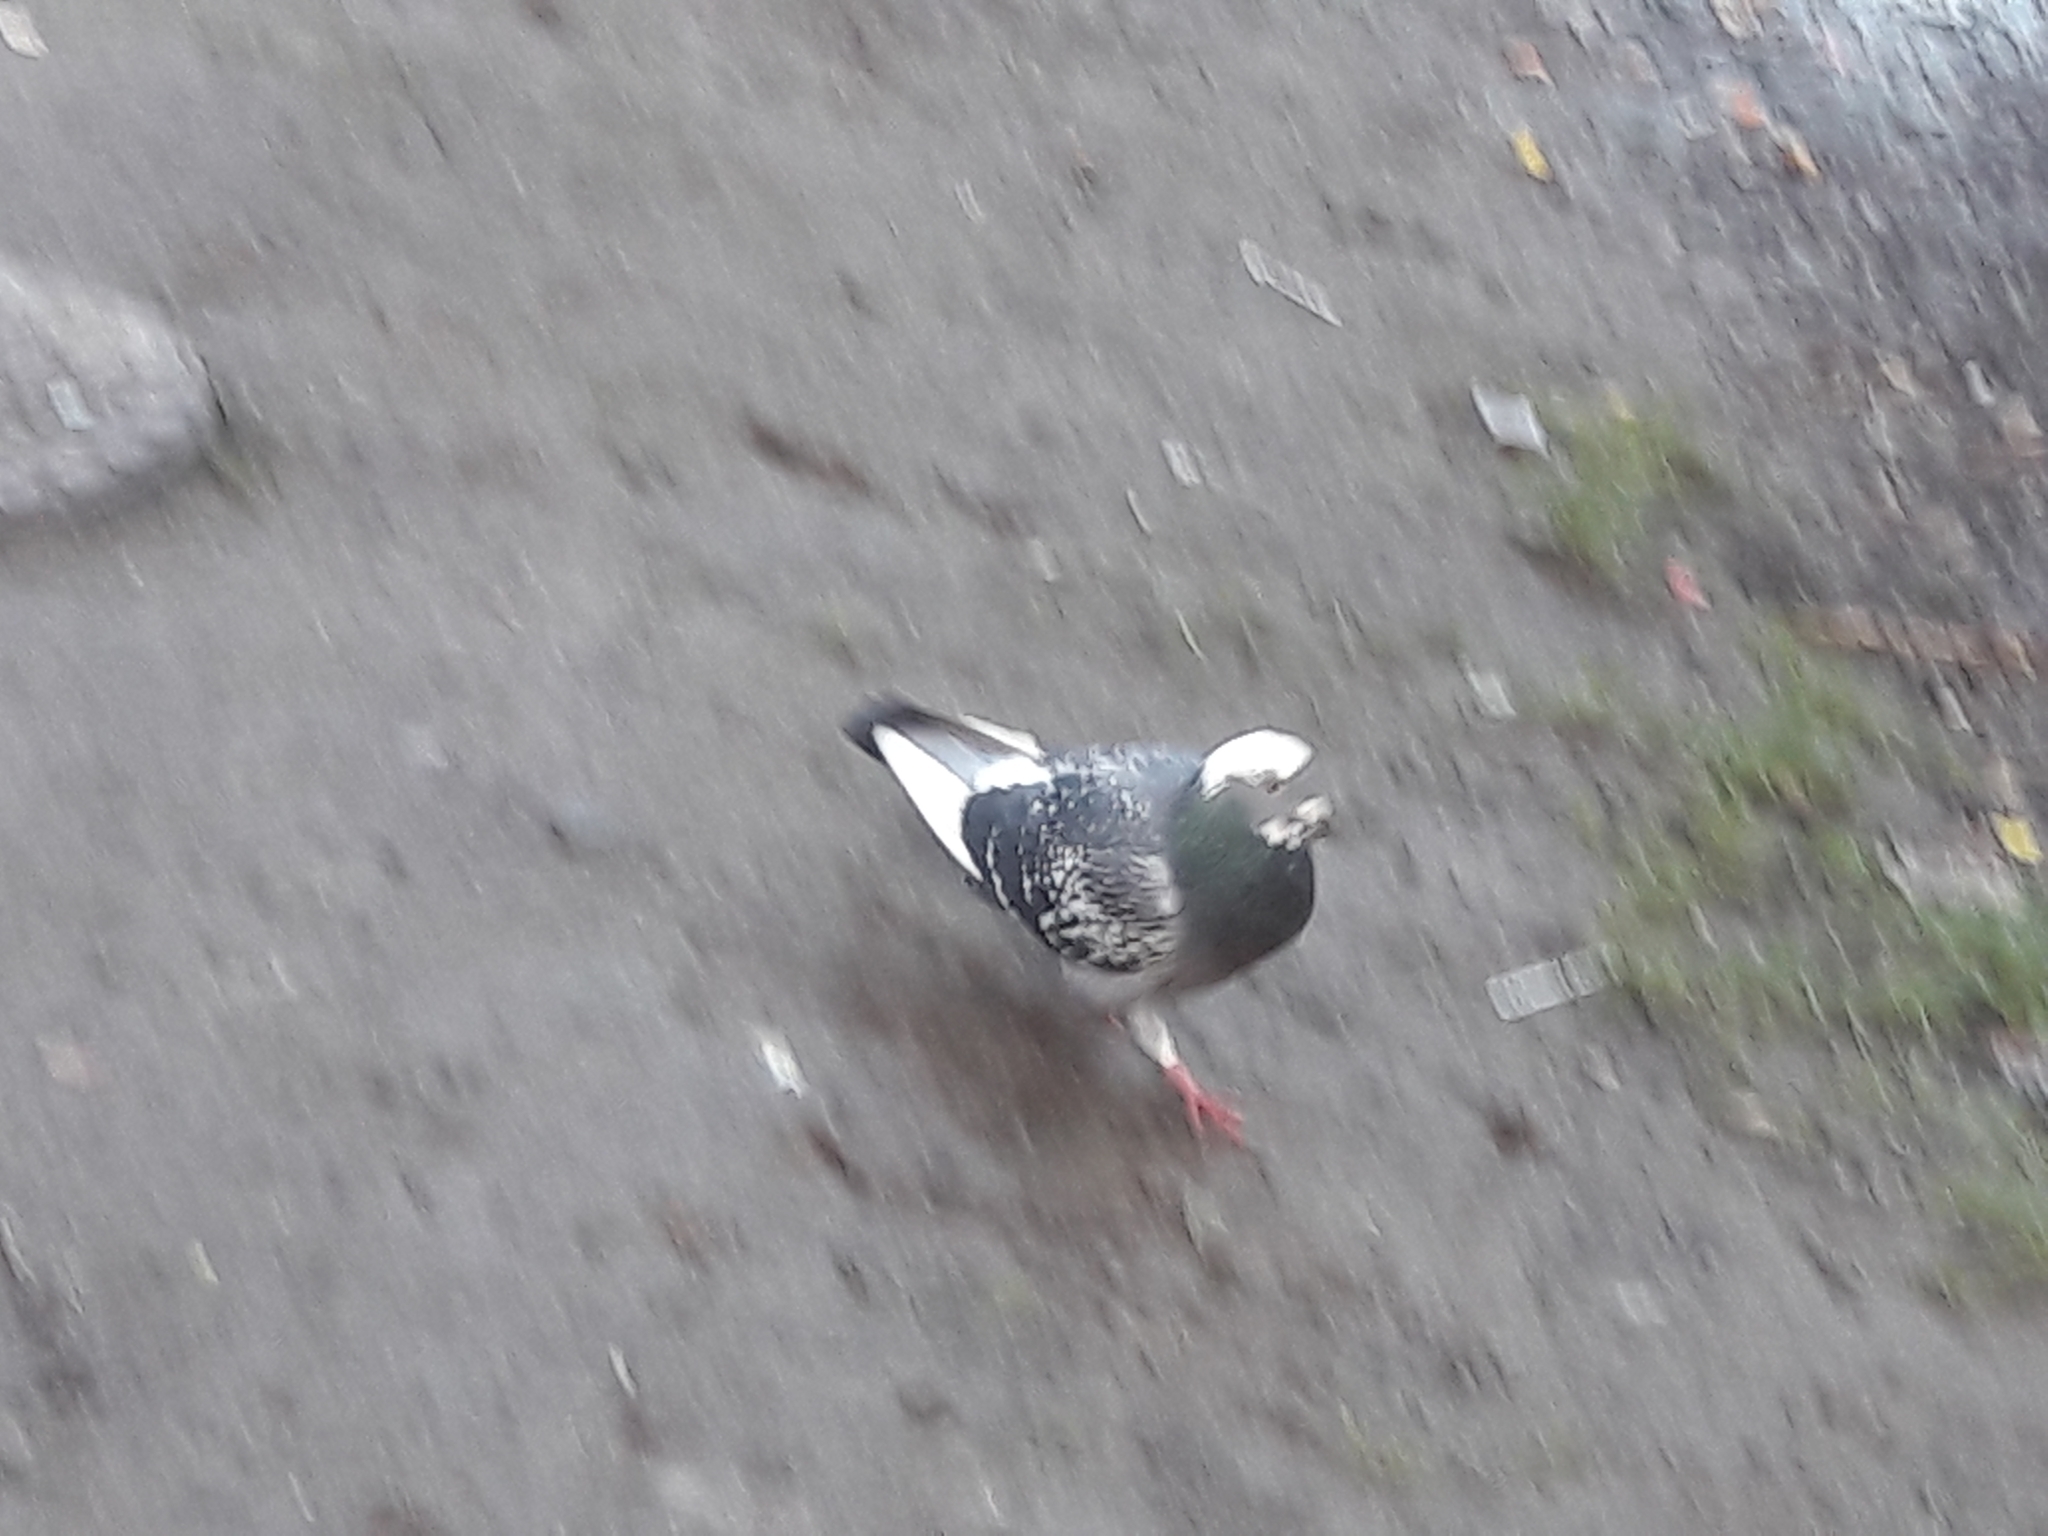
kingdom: Animalia
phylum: Chordata
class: Aves
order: Columbiformes
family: Columbidae
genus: Columba
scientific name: Columba livia
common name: Rock pigeon
